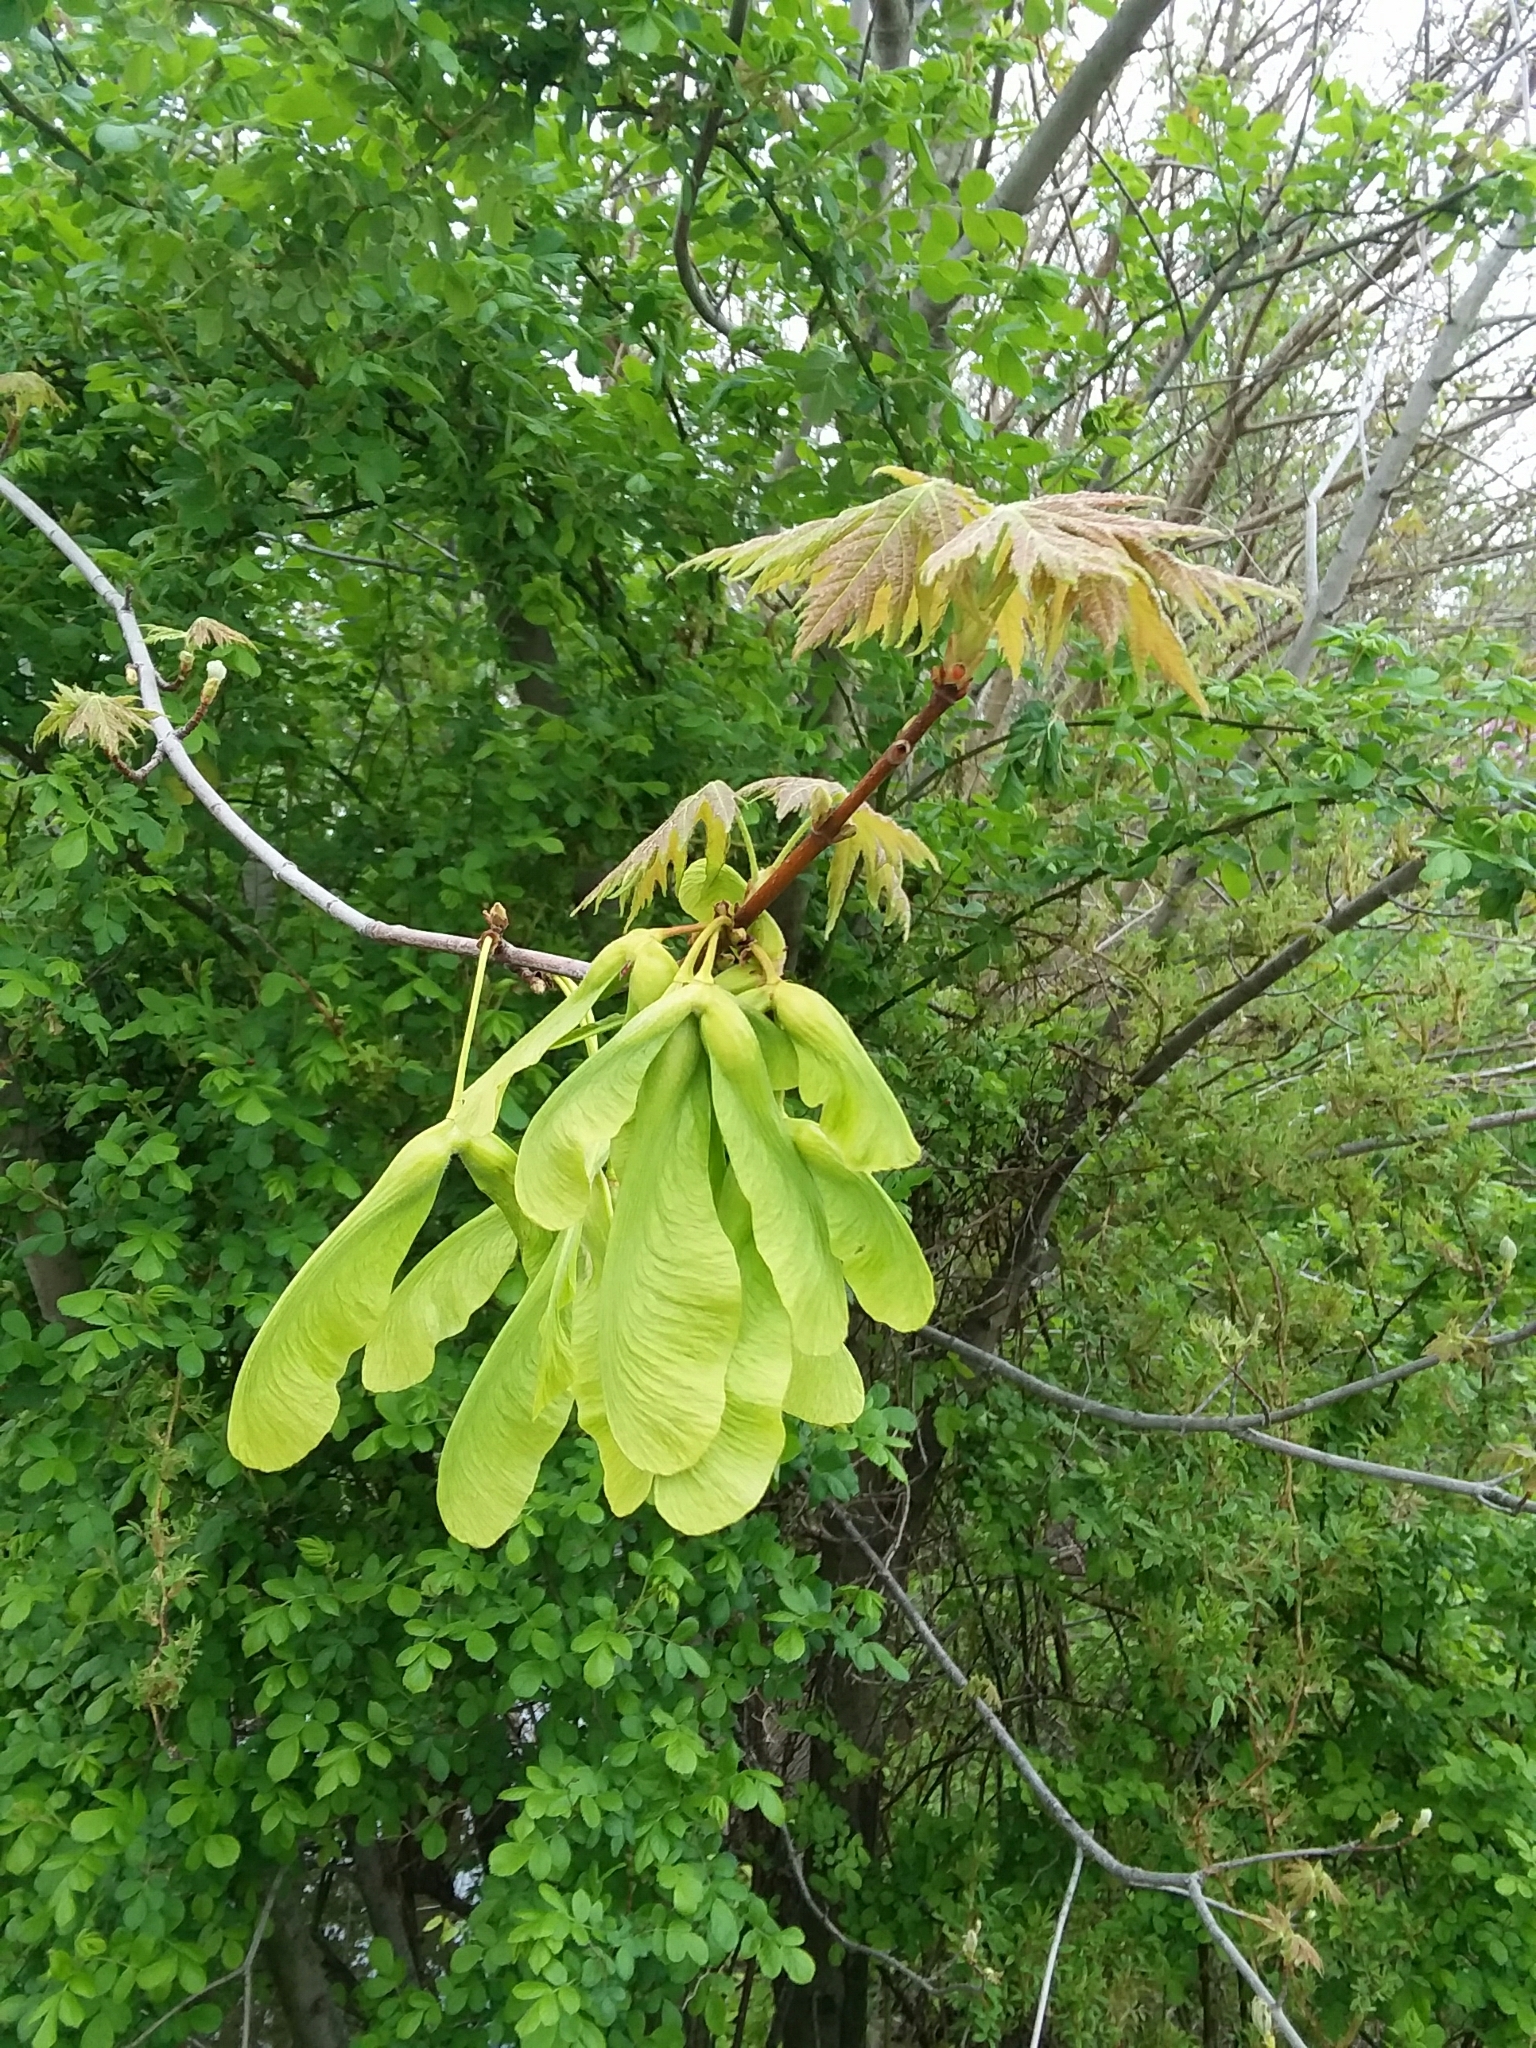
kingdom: Plantae
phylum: Tracheophyta
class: Magnoliopsida
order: Sapindales
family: Sapindaceae
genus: Acer
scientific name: Acer saccharinum
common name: Silver maple
